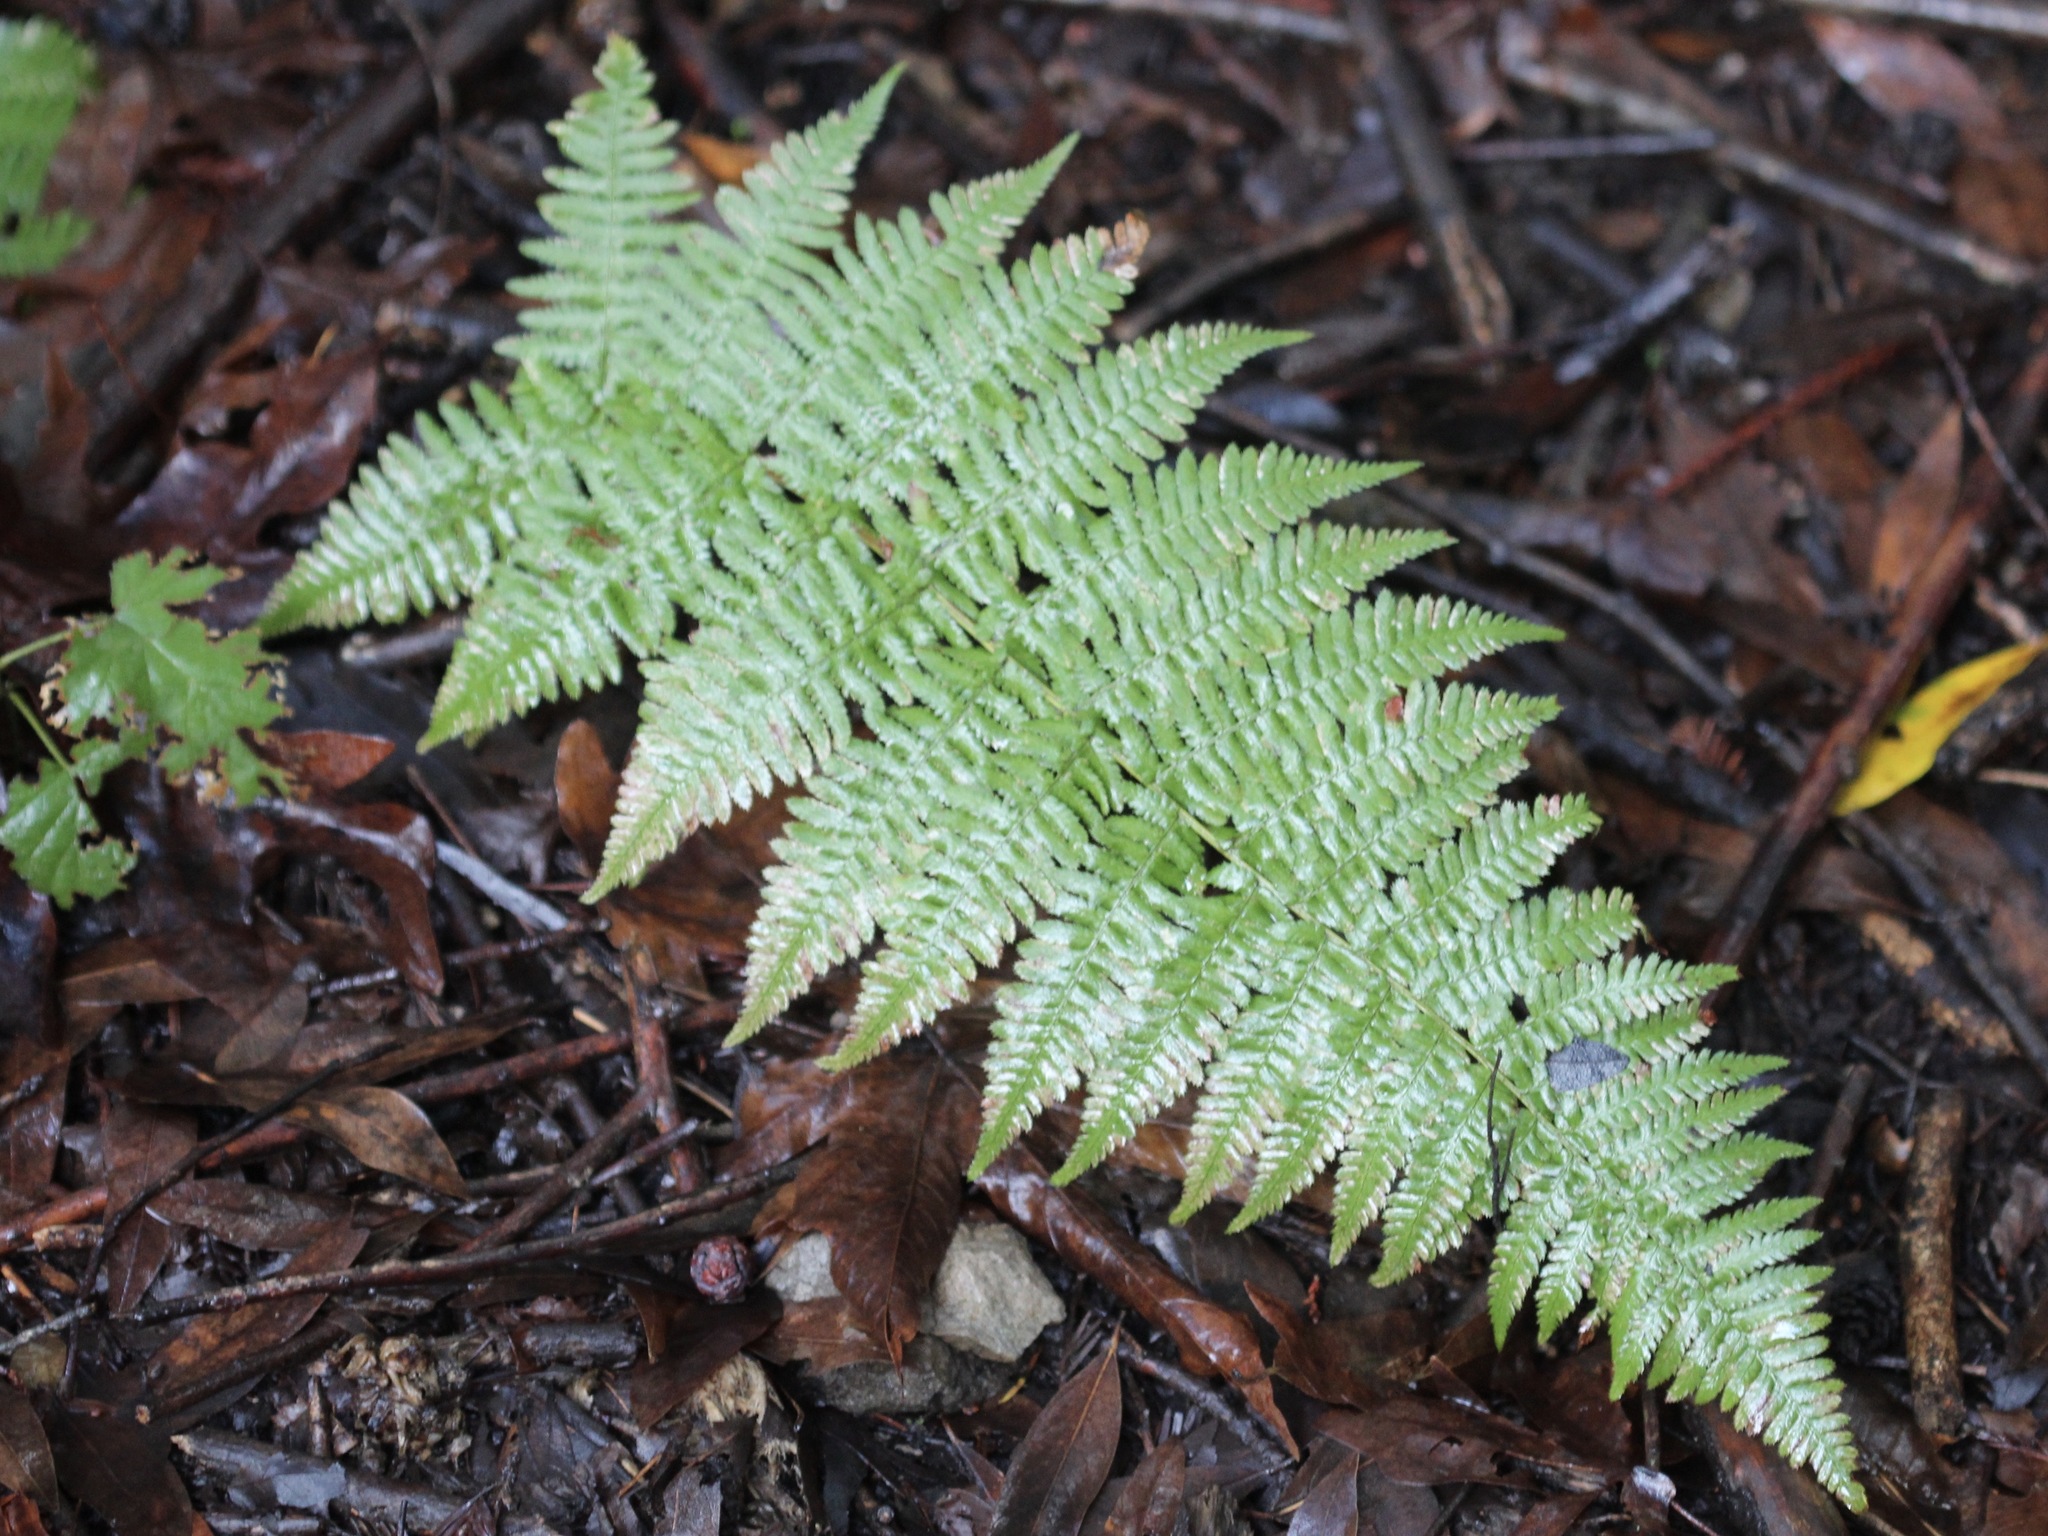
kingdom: Plantae
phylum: Tracheophyta
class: Polypodiopsida
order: Polypodiales
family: Dryopteridaceae
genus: Dryopteris
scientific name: Dryopteris arguta
